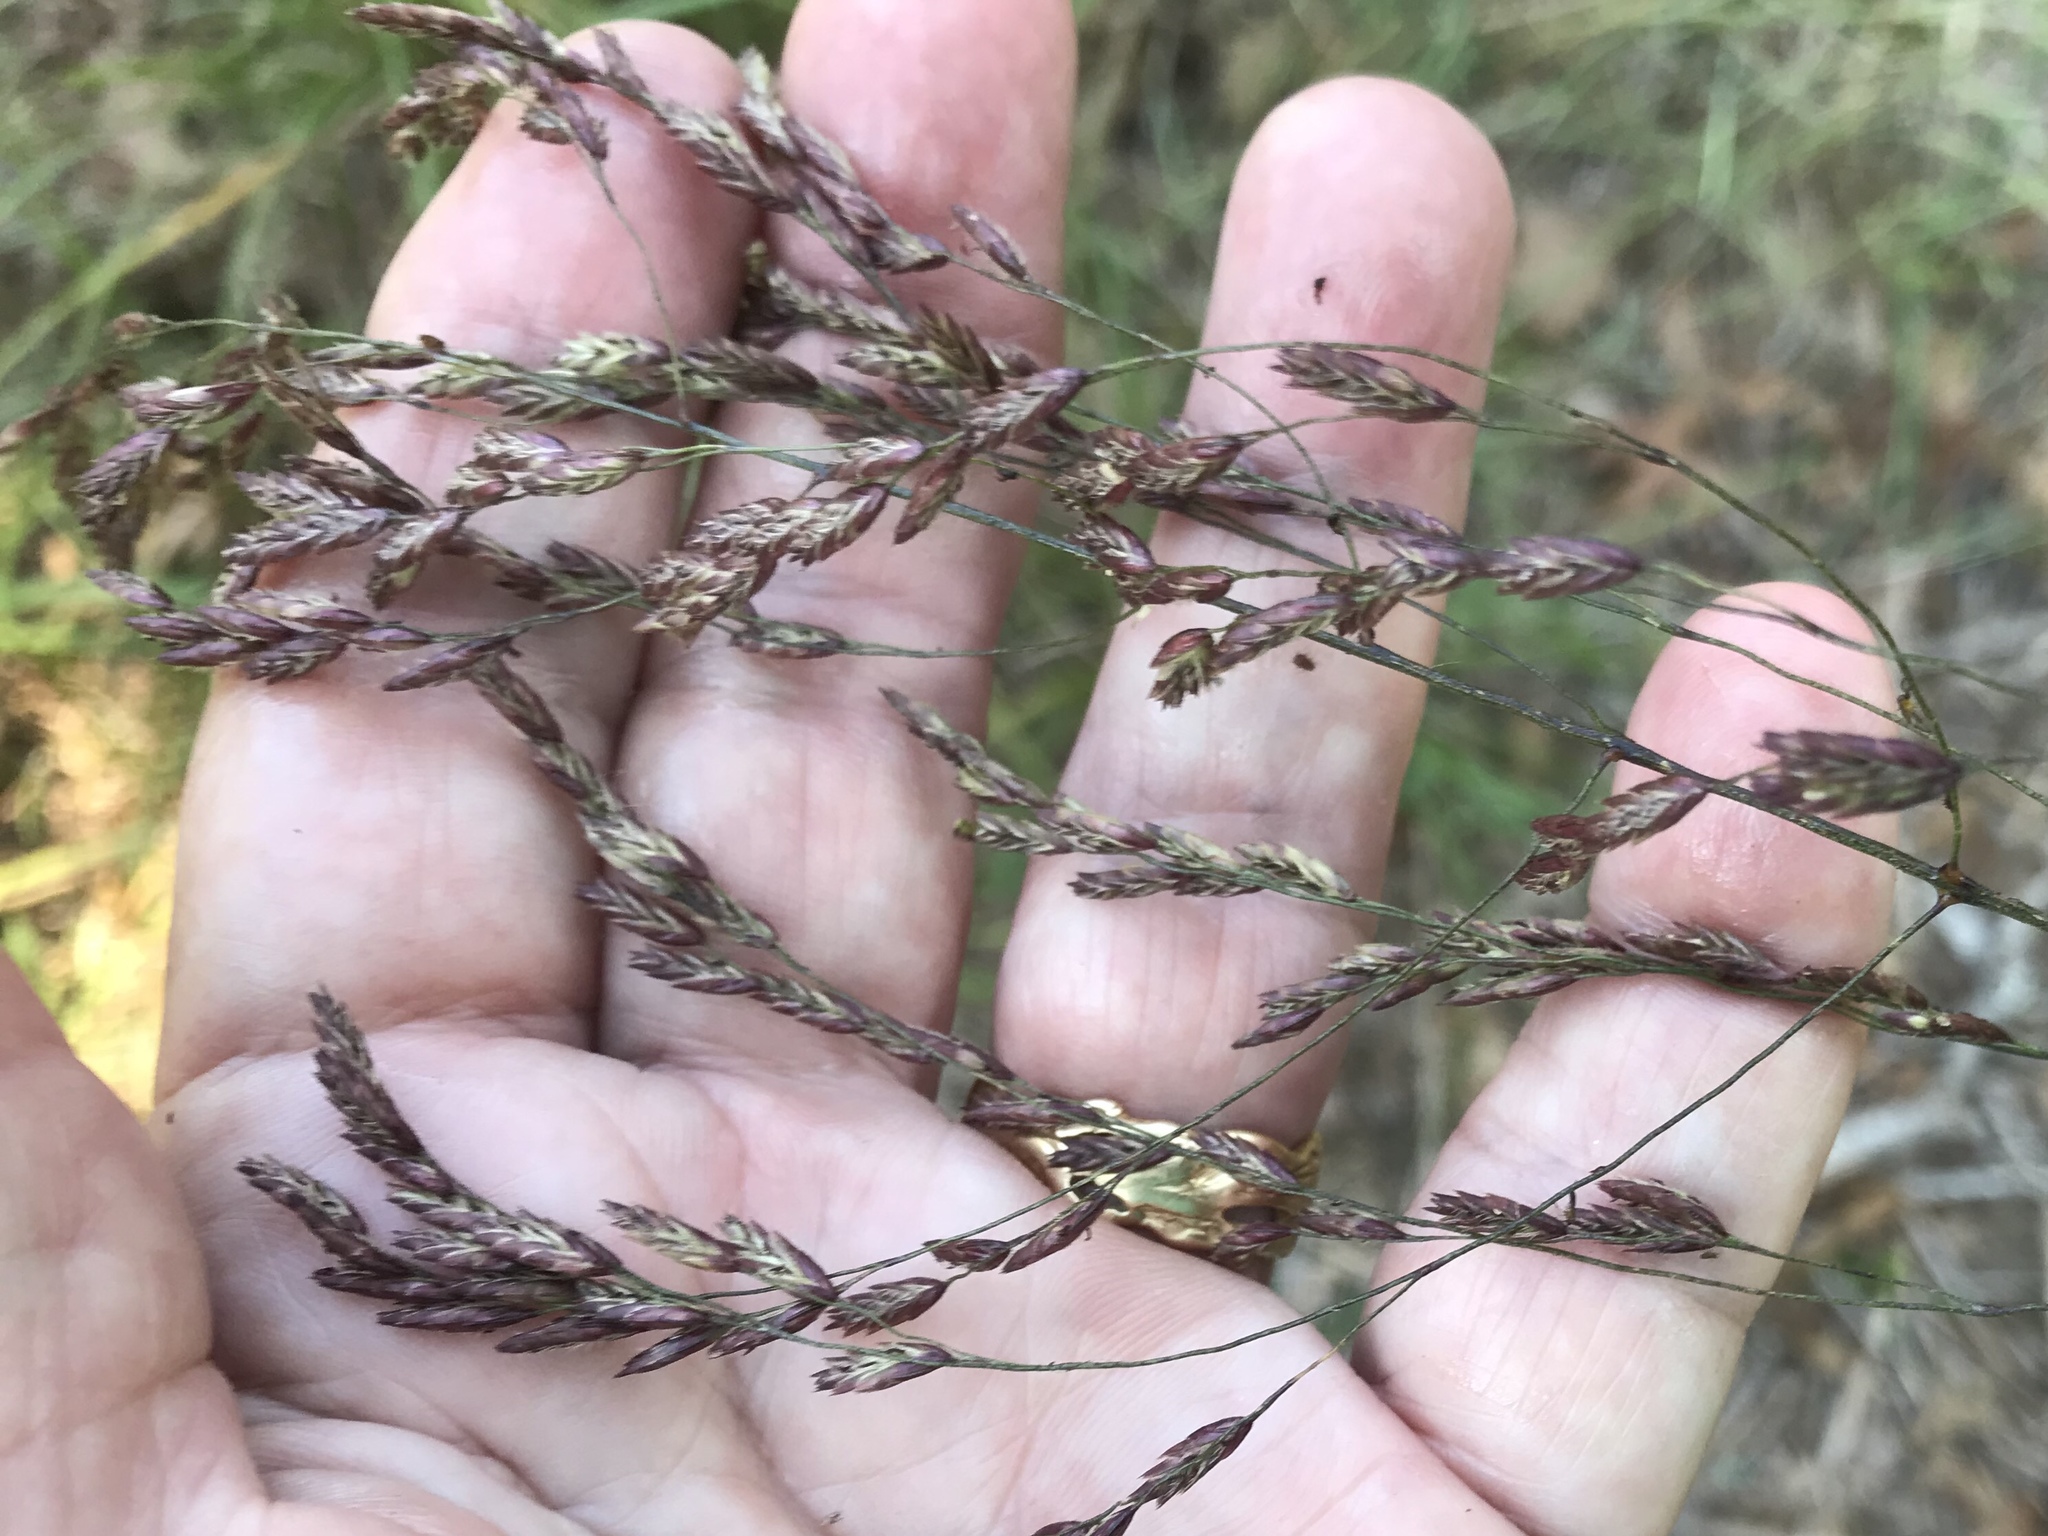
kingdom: Plantae
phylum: Tracheophyta
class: Liliopsida
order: Poales
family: Poaceae
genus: Tridens
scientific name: Tridens flavus
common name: Purpletop
